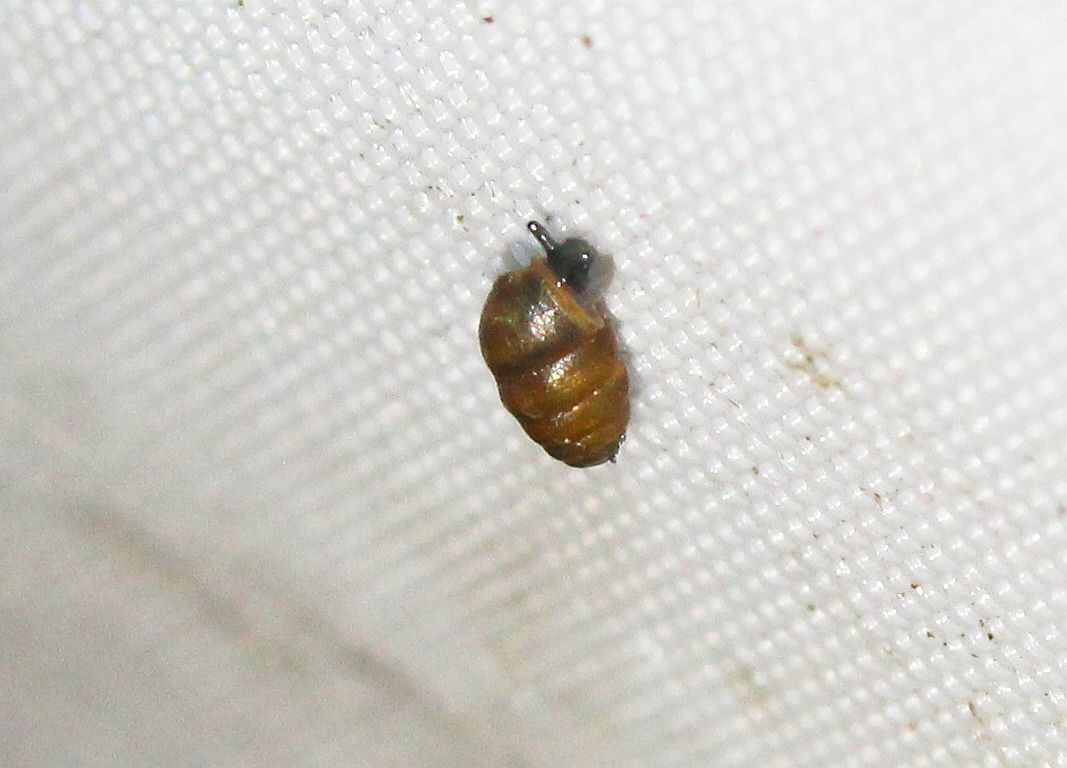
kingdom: Animalia
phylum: Mollusca
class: Gastropoda
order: Stylommatophora
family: Lauriidae
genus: Lauria
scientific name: Lauria cylindracea
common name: Common chrysalis snail
